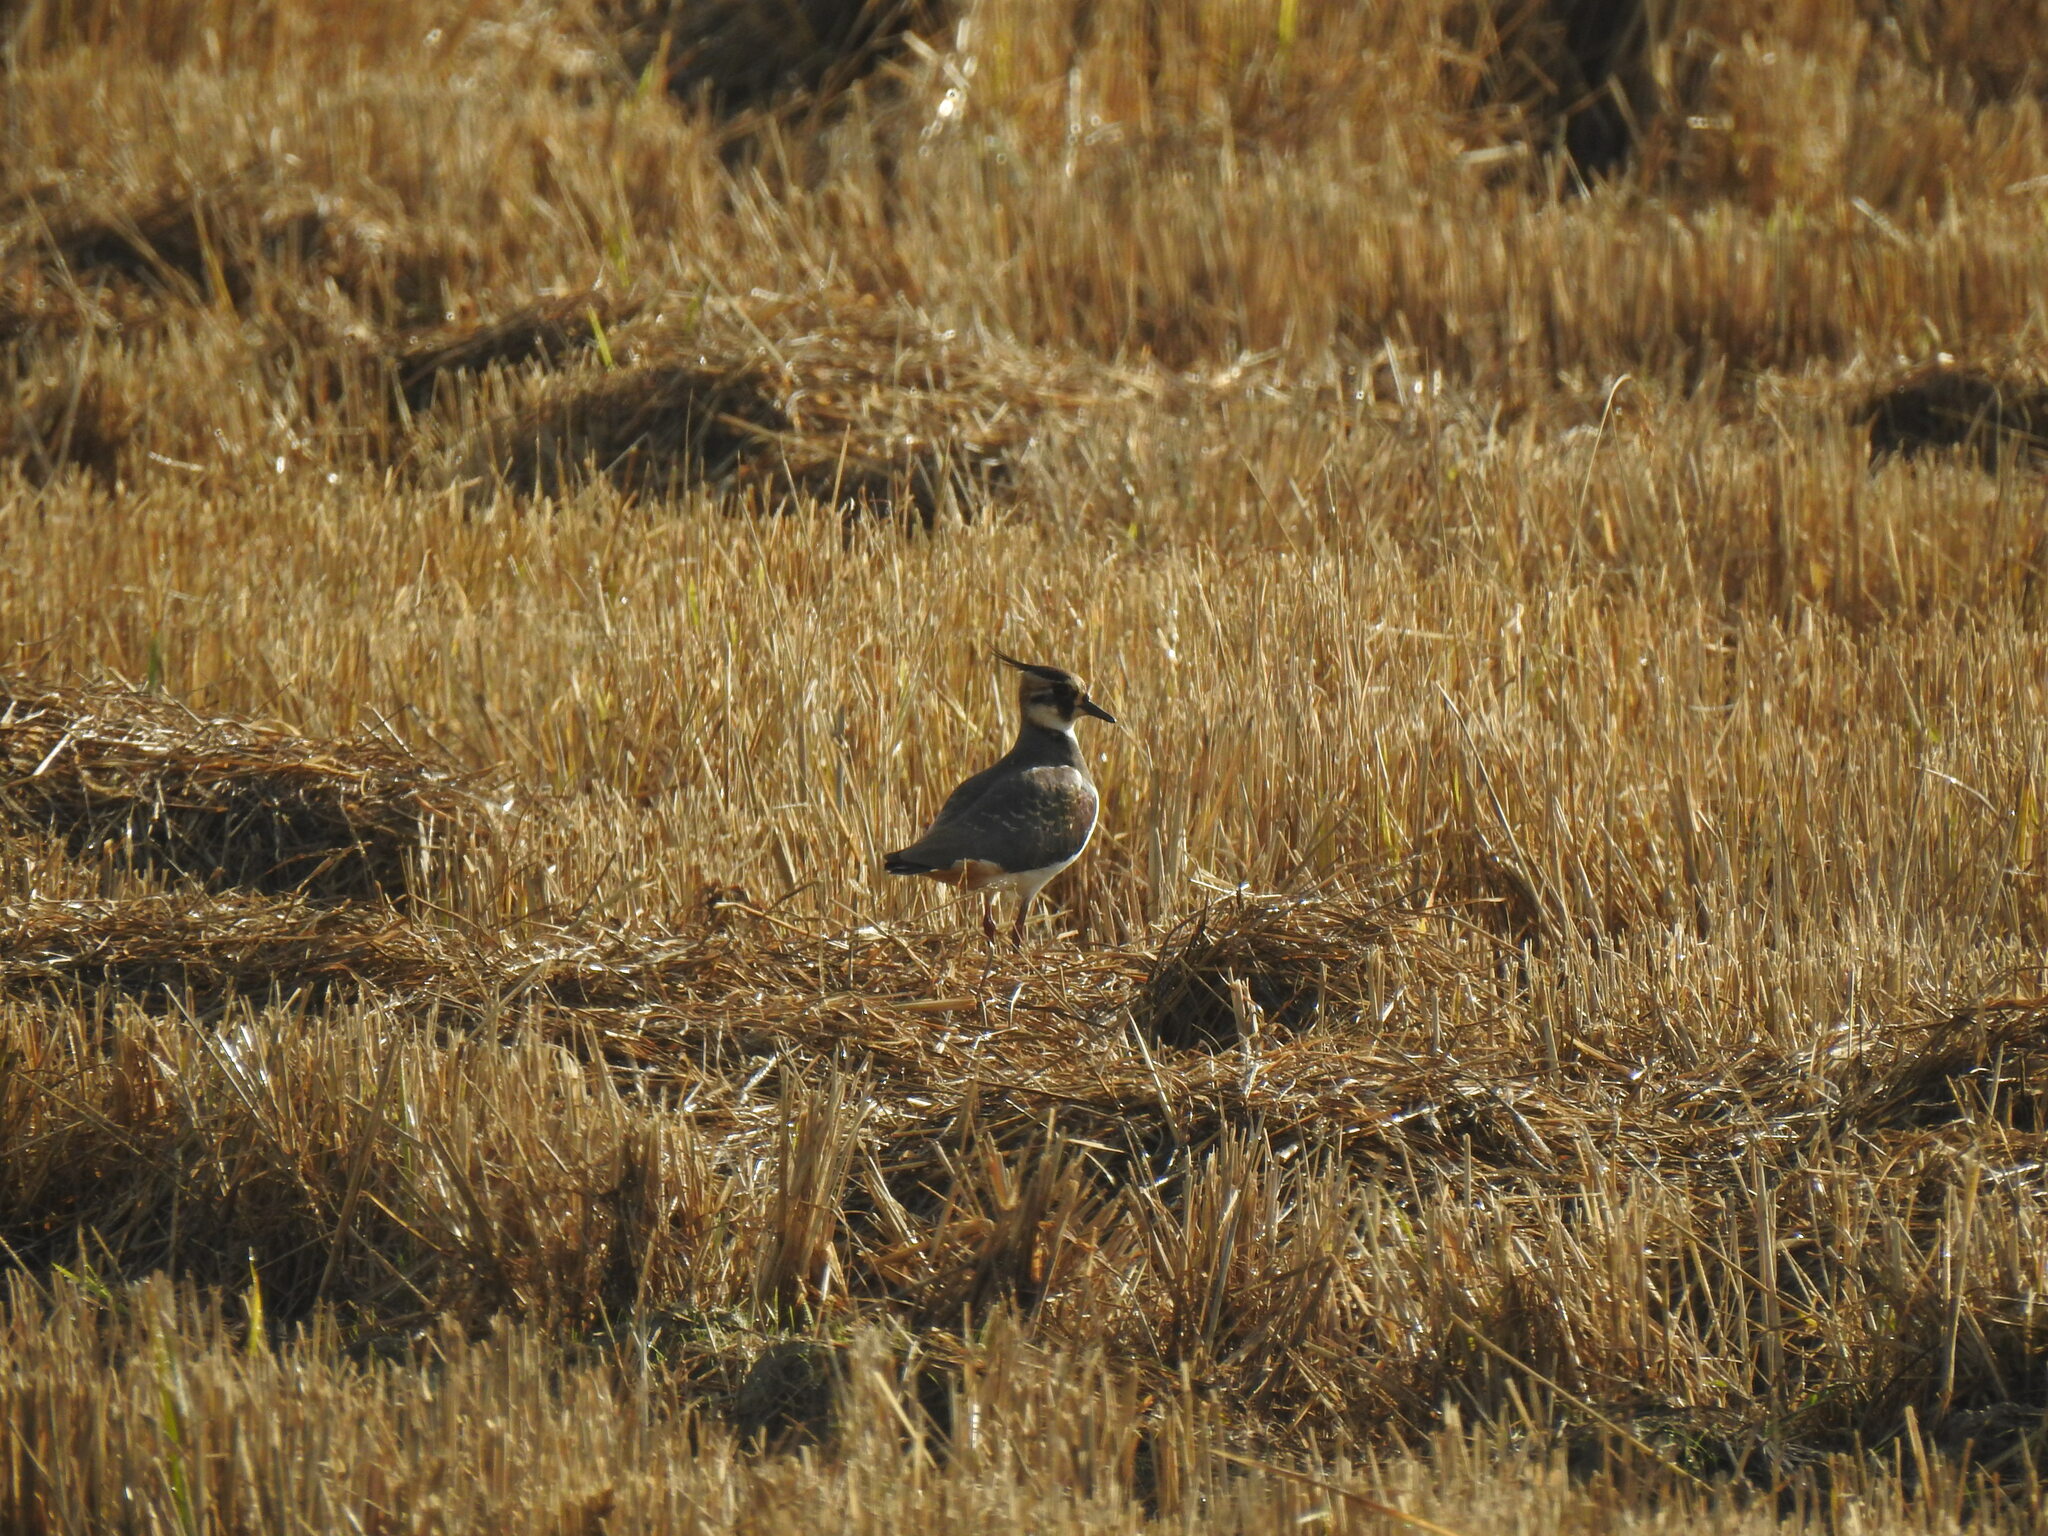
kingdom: Animalia
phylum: Chordata
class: Aves
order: Charadriiformes
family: Charadriidae
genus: Vanellus
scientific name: Vanellus vanellus
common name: Northern lapwing
